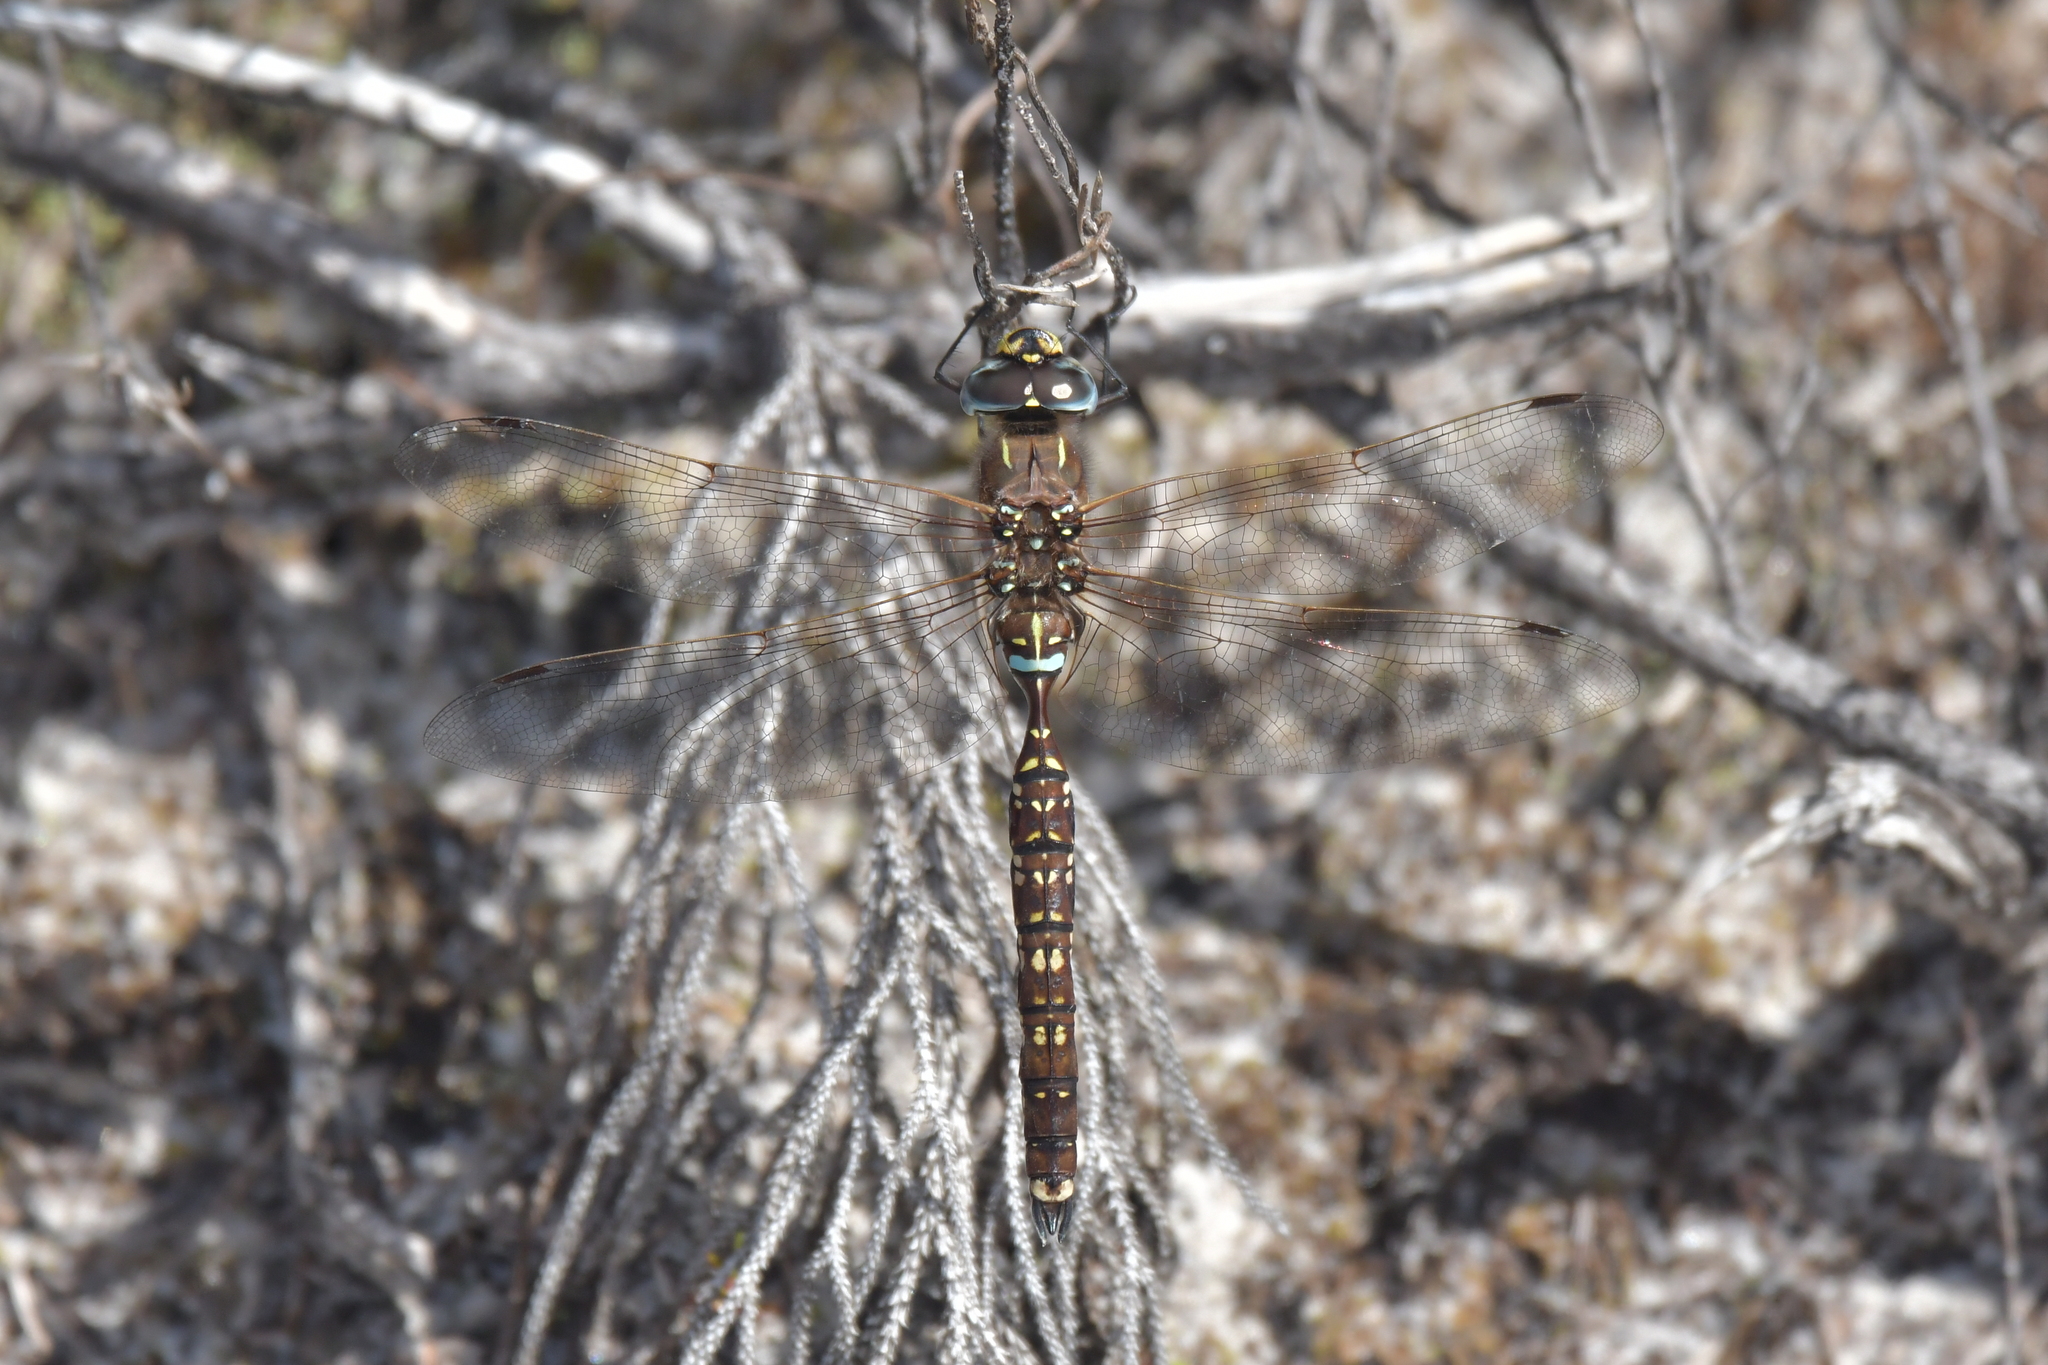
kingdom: Animalia
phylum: Arthropoda
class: Insecta
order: Odonata
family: Aeshnidae
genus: Aeshna
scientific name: Aeshna brevistyla
